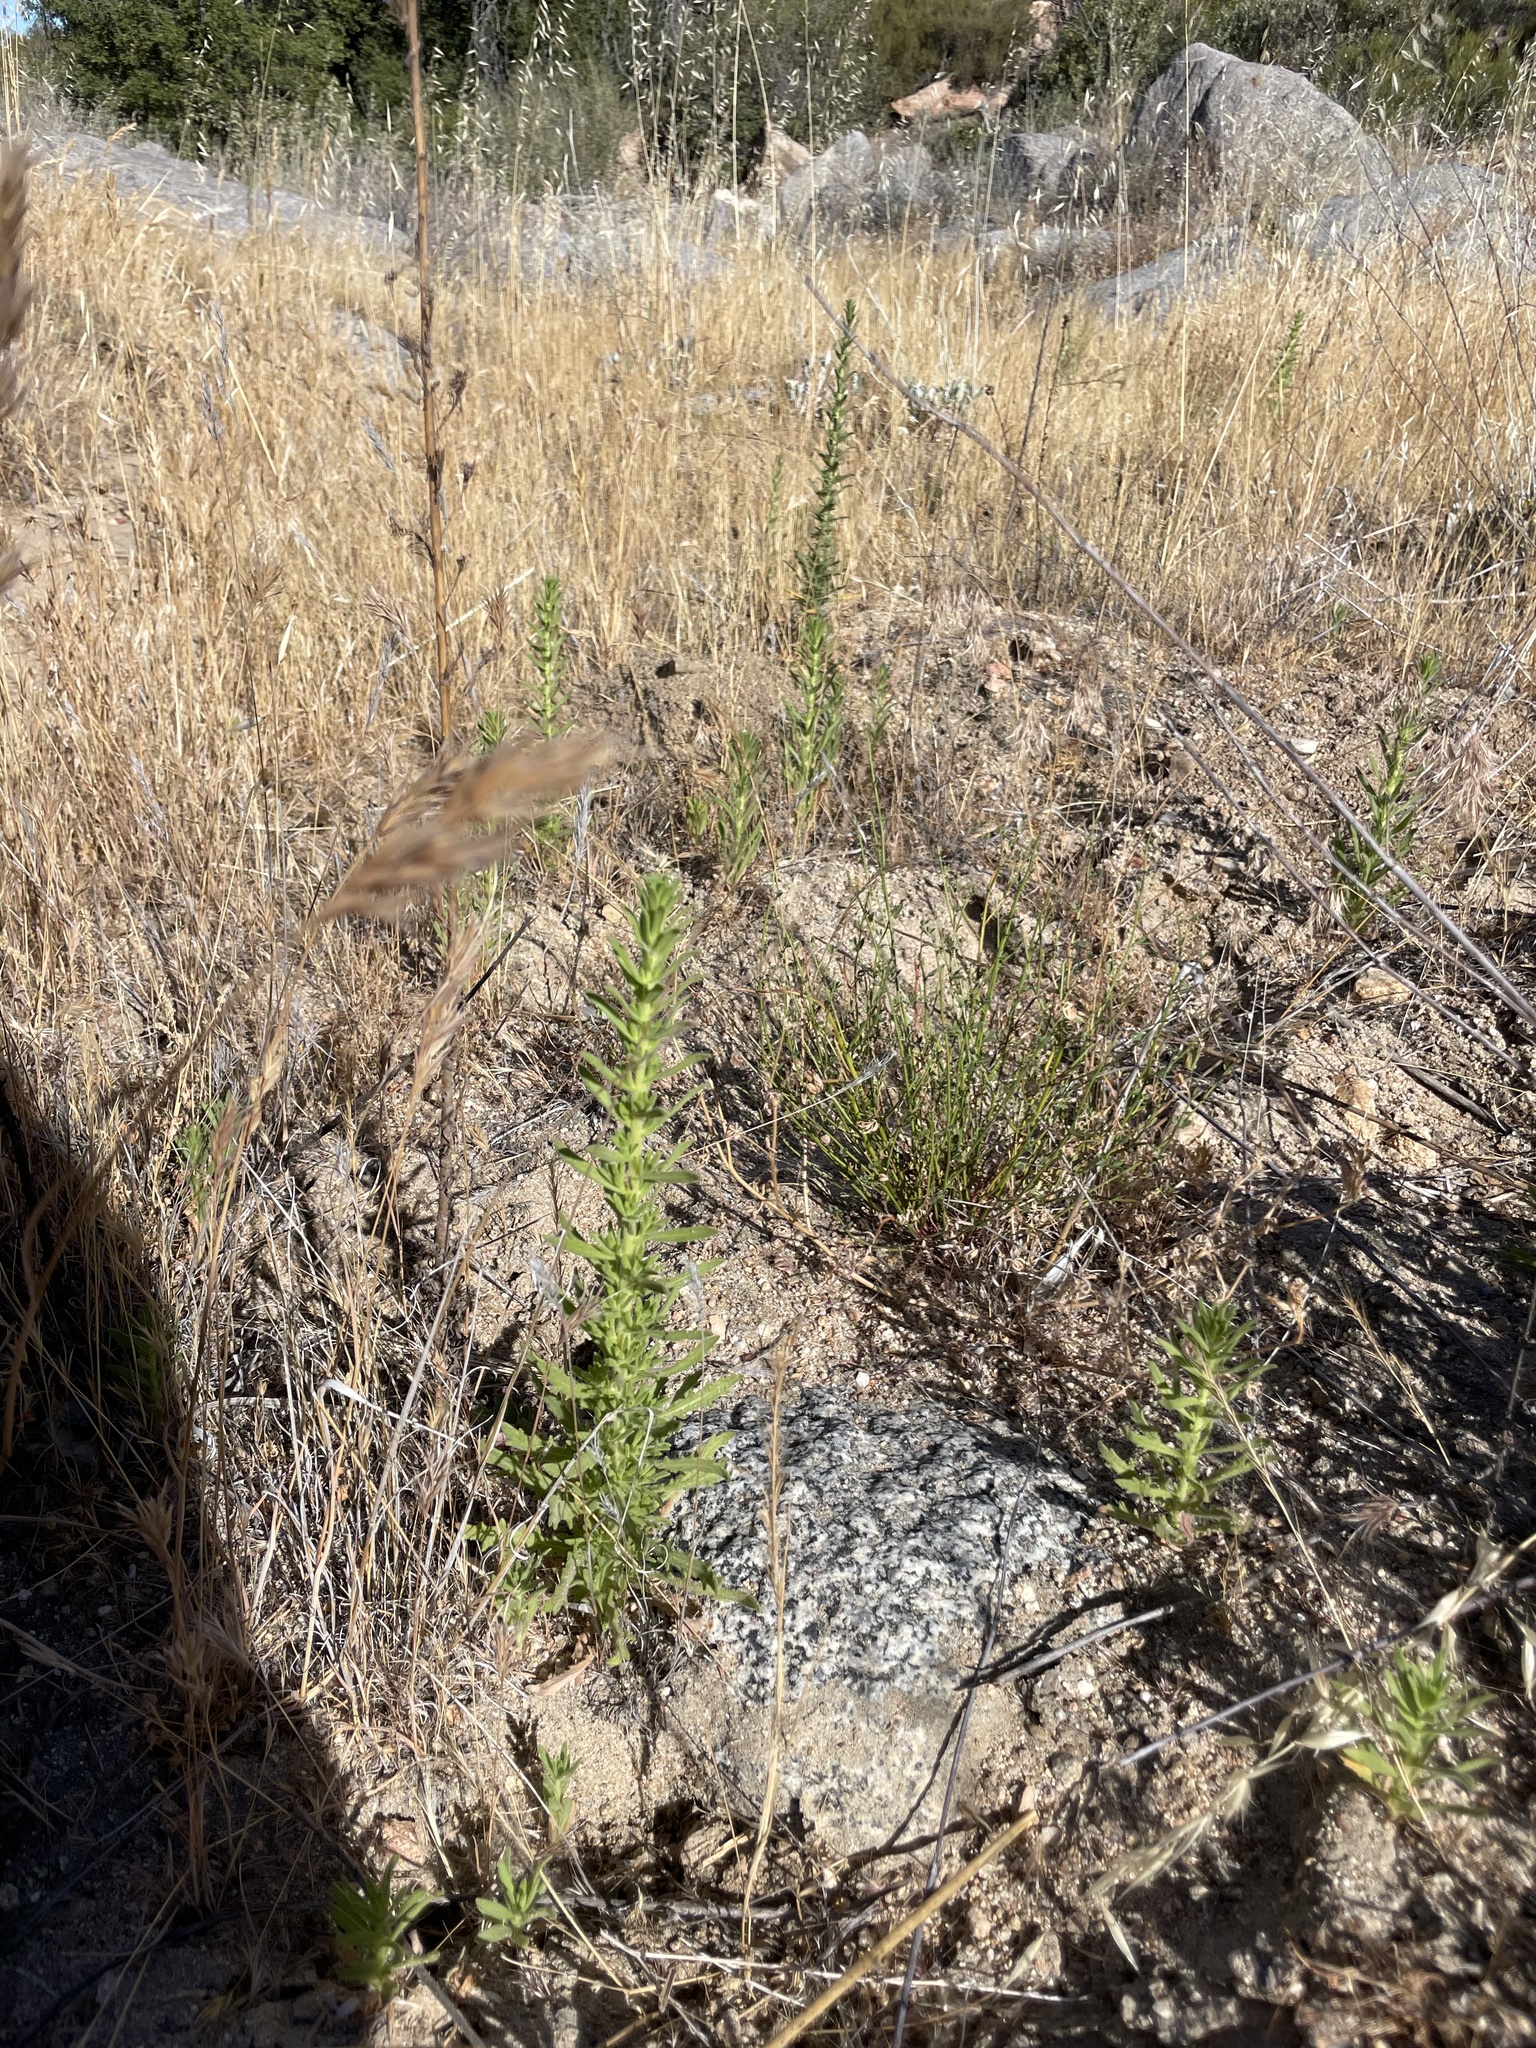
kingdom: Plantae
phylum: Tracheophyta
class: Magnoliopsida
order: Asterales
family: Asteraceae
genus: Deinandra
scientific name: Deinandra floribunda
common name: Tecate tarweed
